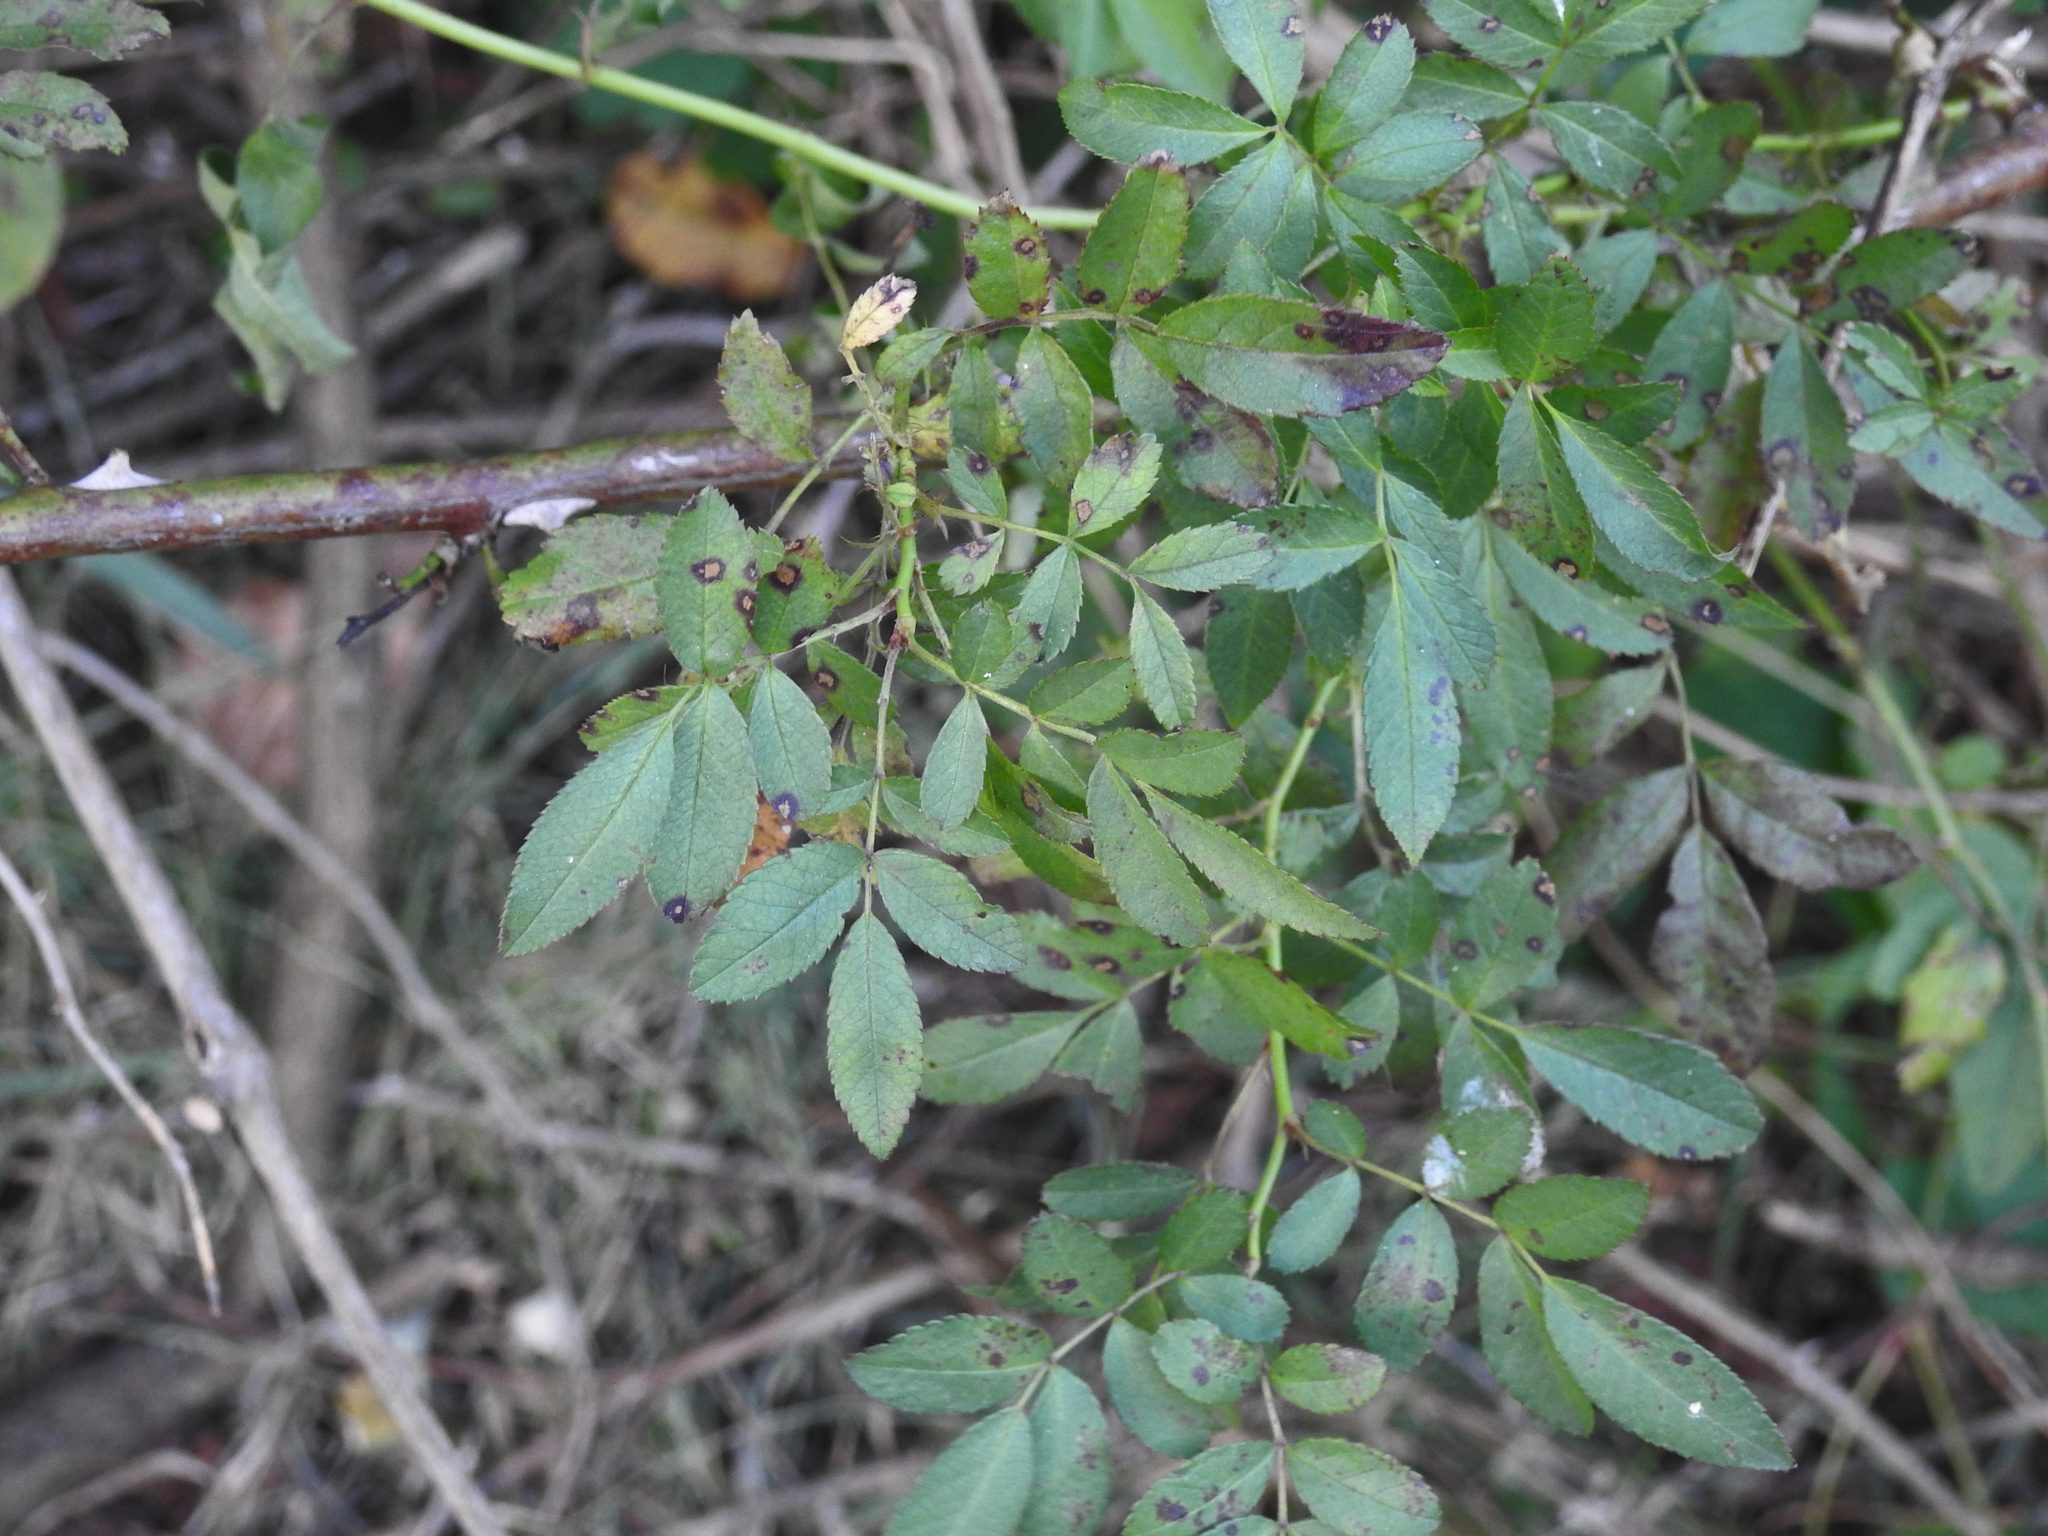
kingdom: Plantae
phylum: Tracheophyta
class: Magnoliopsida
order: Rosales
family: Rosaceae
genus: Rosa
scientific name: Rosa multiflora
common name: Multiflora rose
